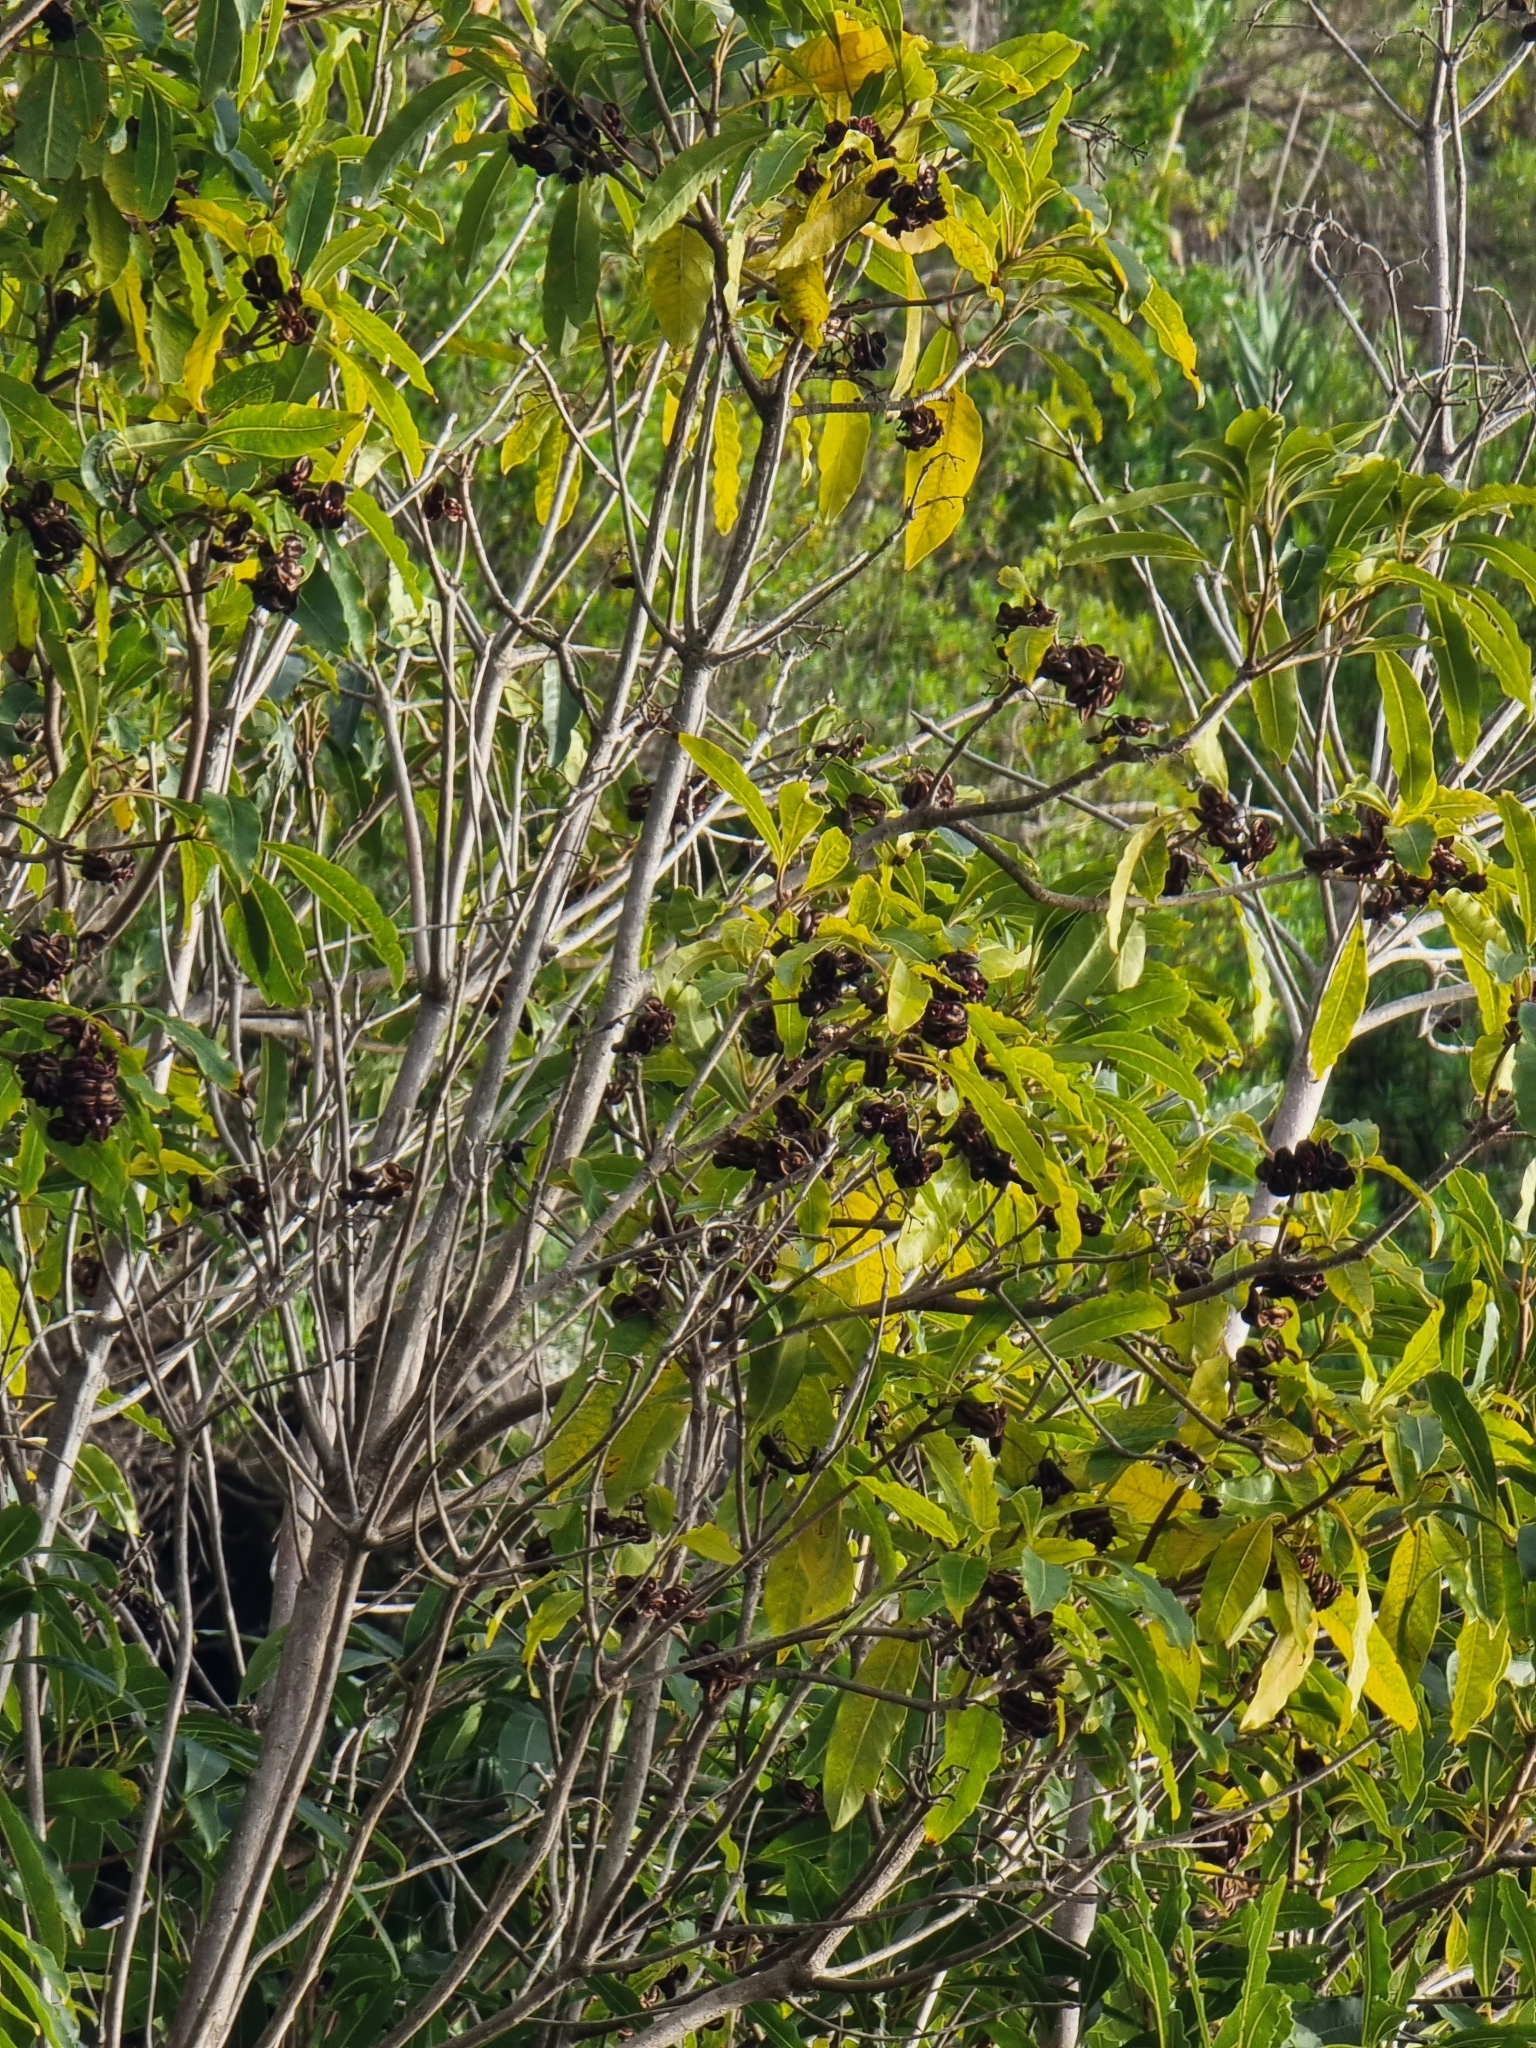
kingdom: Plantae
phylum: Tracheophyta
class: Magnoliopsida
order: Apiales
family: Pittosporaceae
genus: Pittosporum
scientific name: Pittosporum undulatum
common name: Australian cheesewood
